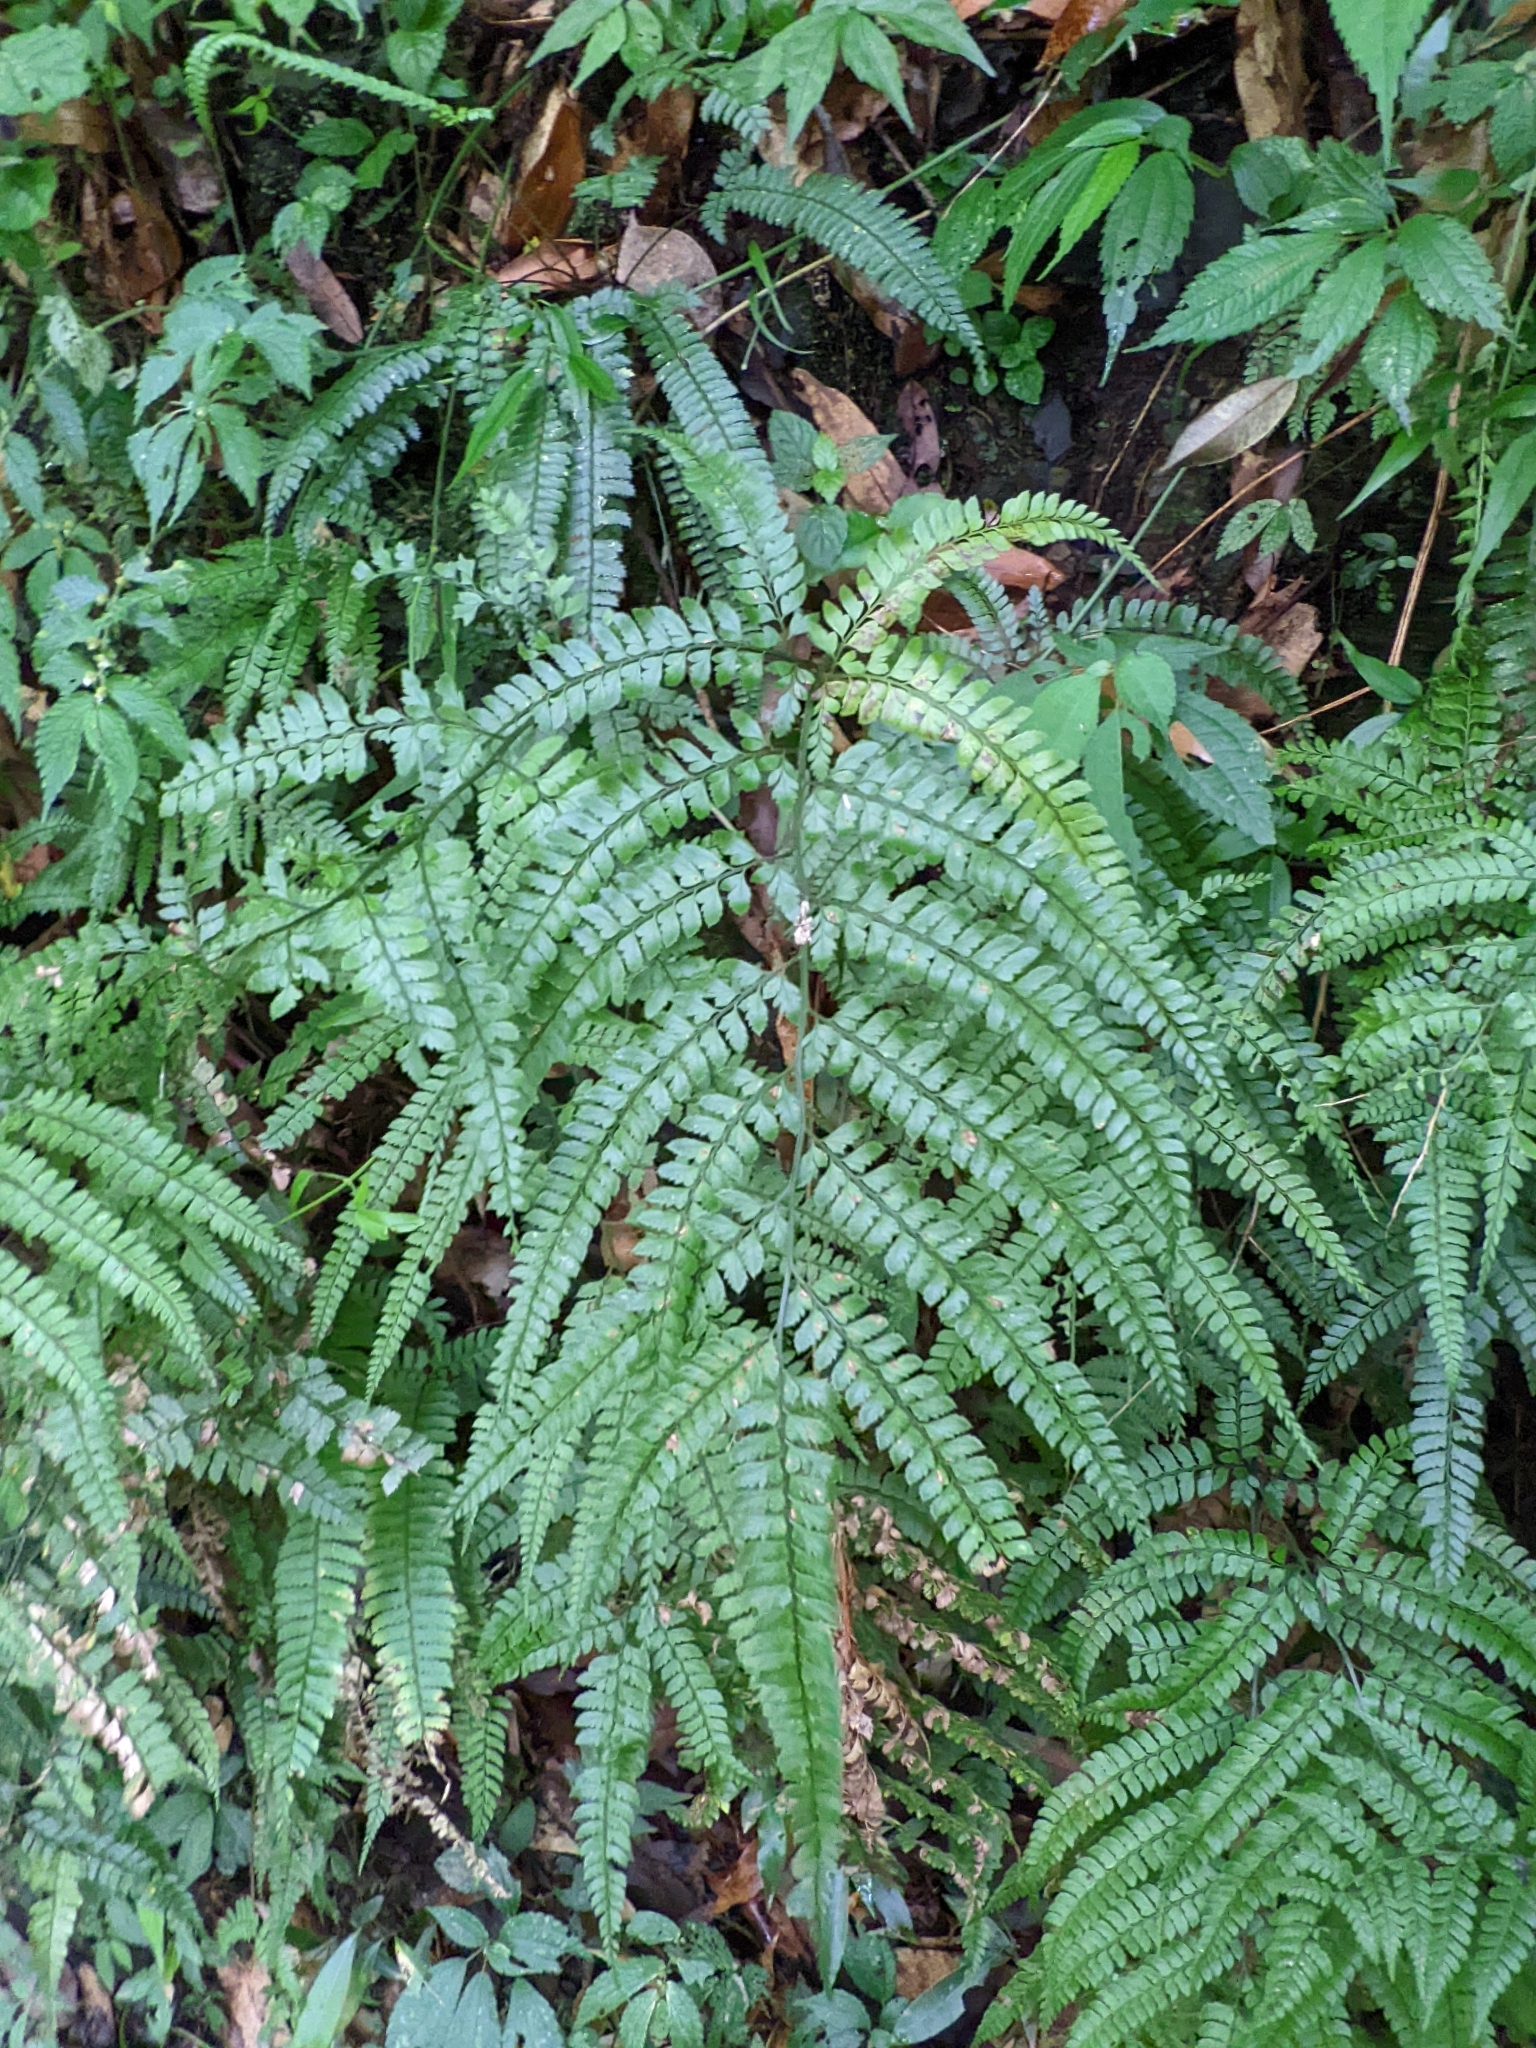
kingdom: Plantae
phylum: Tracheophyta
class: Polypodiopsida
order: Polypodiales
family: Dryopteridaceae
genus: Arachniodes
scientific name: Arachniodes rhomboidea
